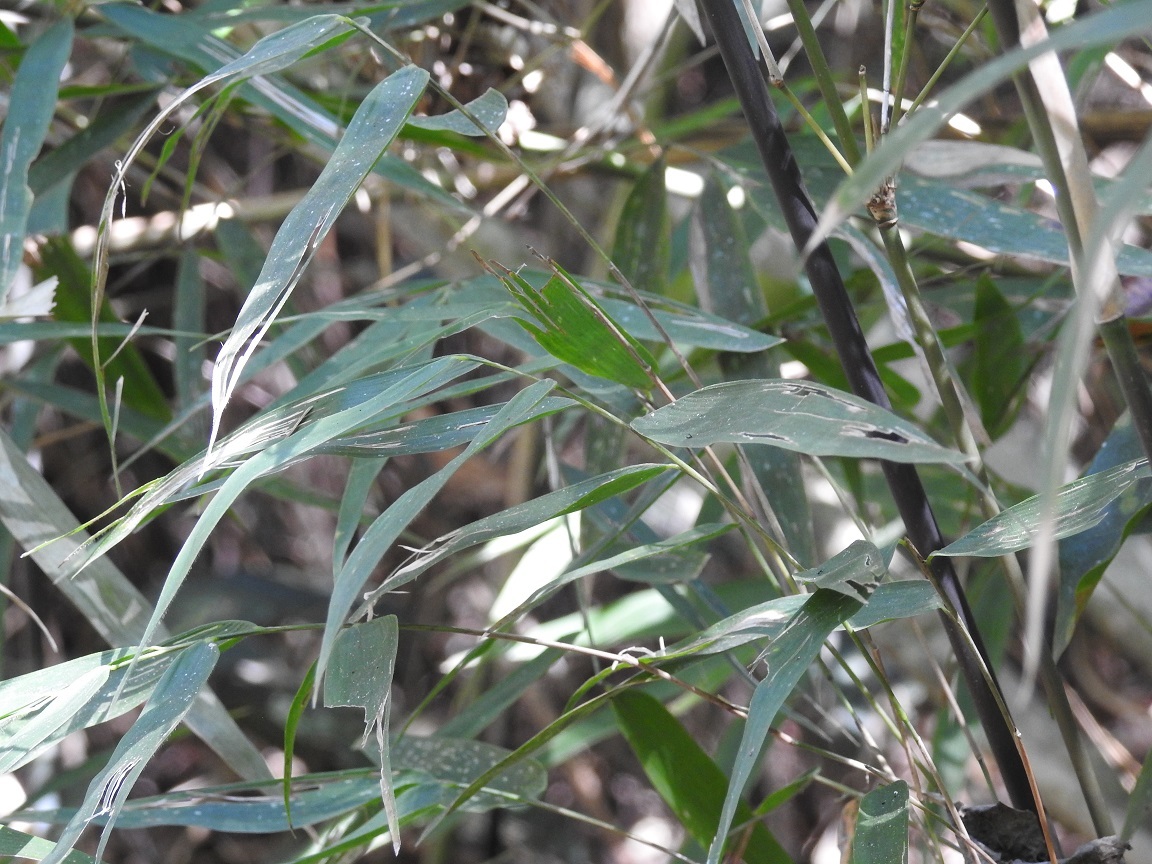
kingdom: Plantae
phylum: Tracheophyta
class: Liliopsida
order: Poales
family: Poaceae
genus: Rhipidocladum
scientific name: Rhipidocladum pittieri
